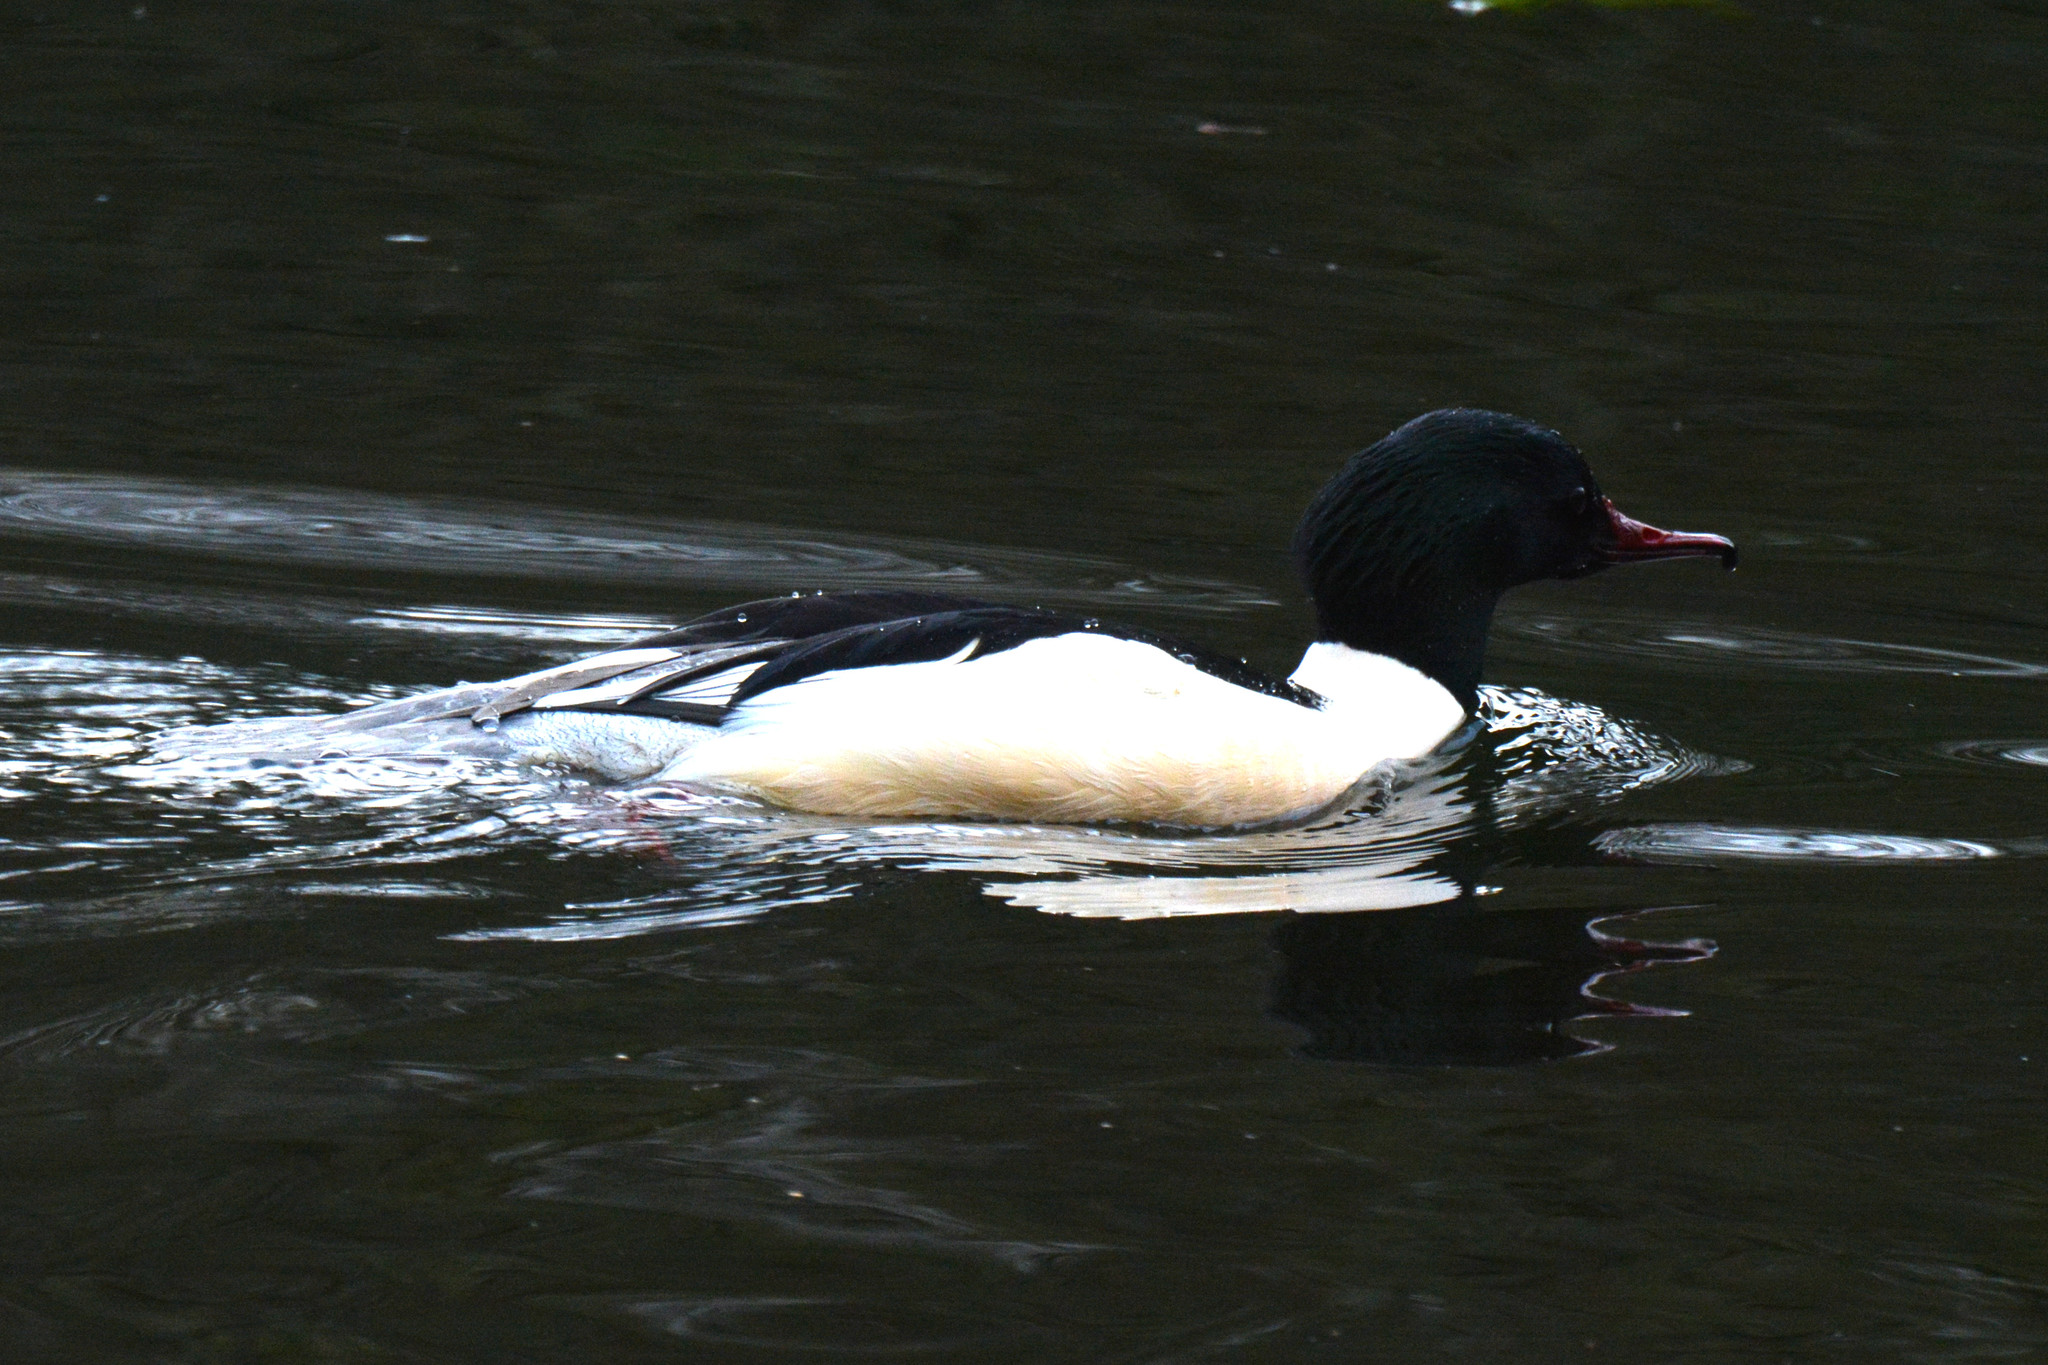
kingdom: Animalia
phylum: Chordata
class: Aves
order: Anseriformes
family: Anatidae
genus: Mergus
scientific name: Mergus merganser
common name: Common merganser
